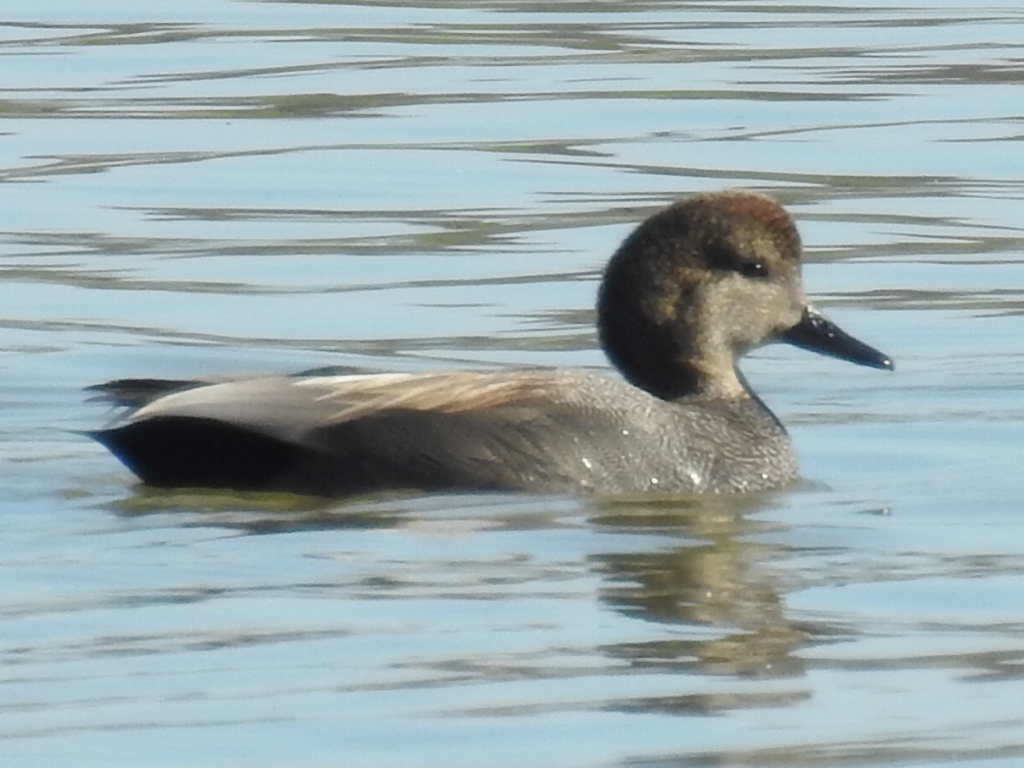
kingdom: Animalia
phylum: Chordata
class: Aves
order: Anseriformes
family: Anatidae
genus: Mareca
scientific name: Mareca strepera
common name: Gadwall
